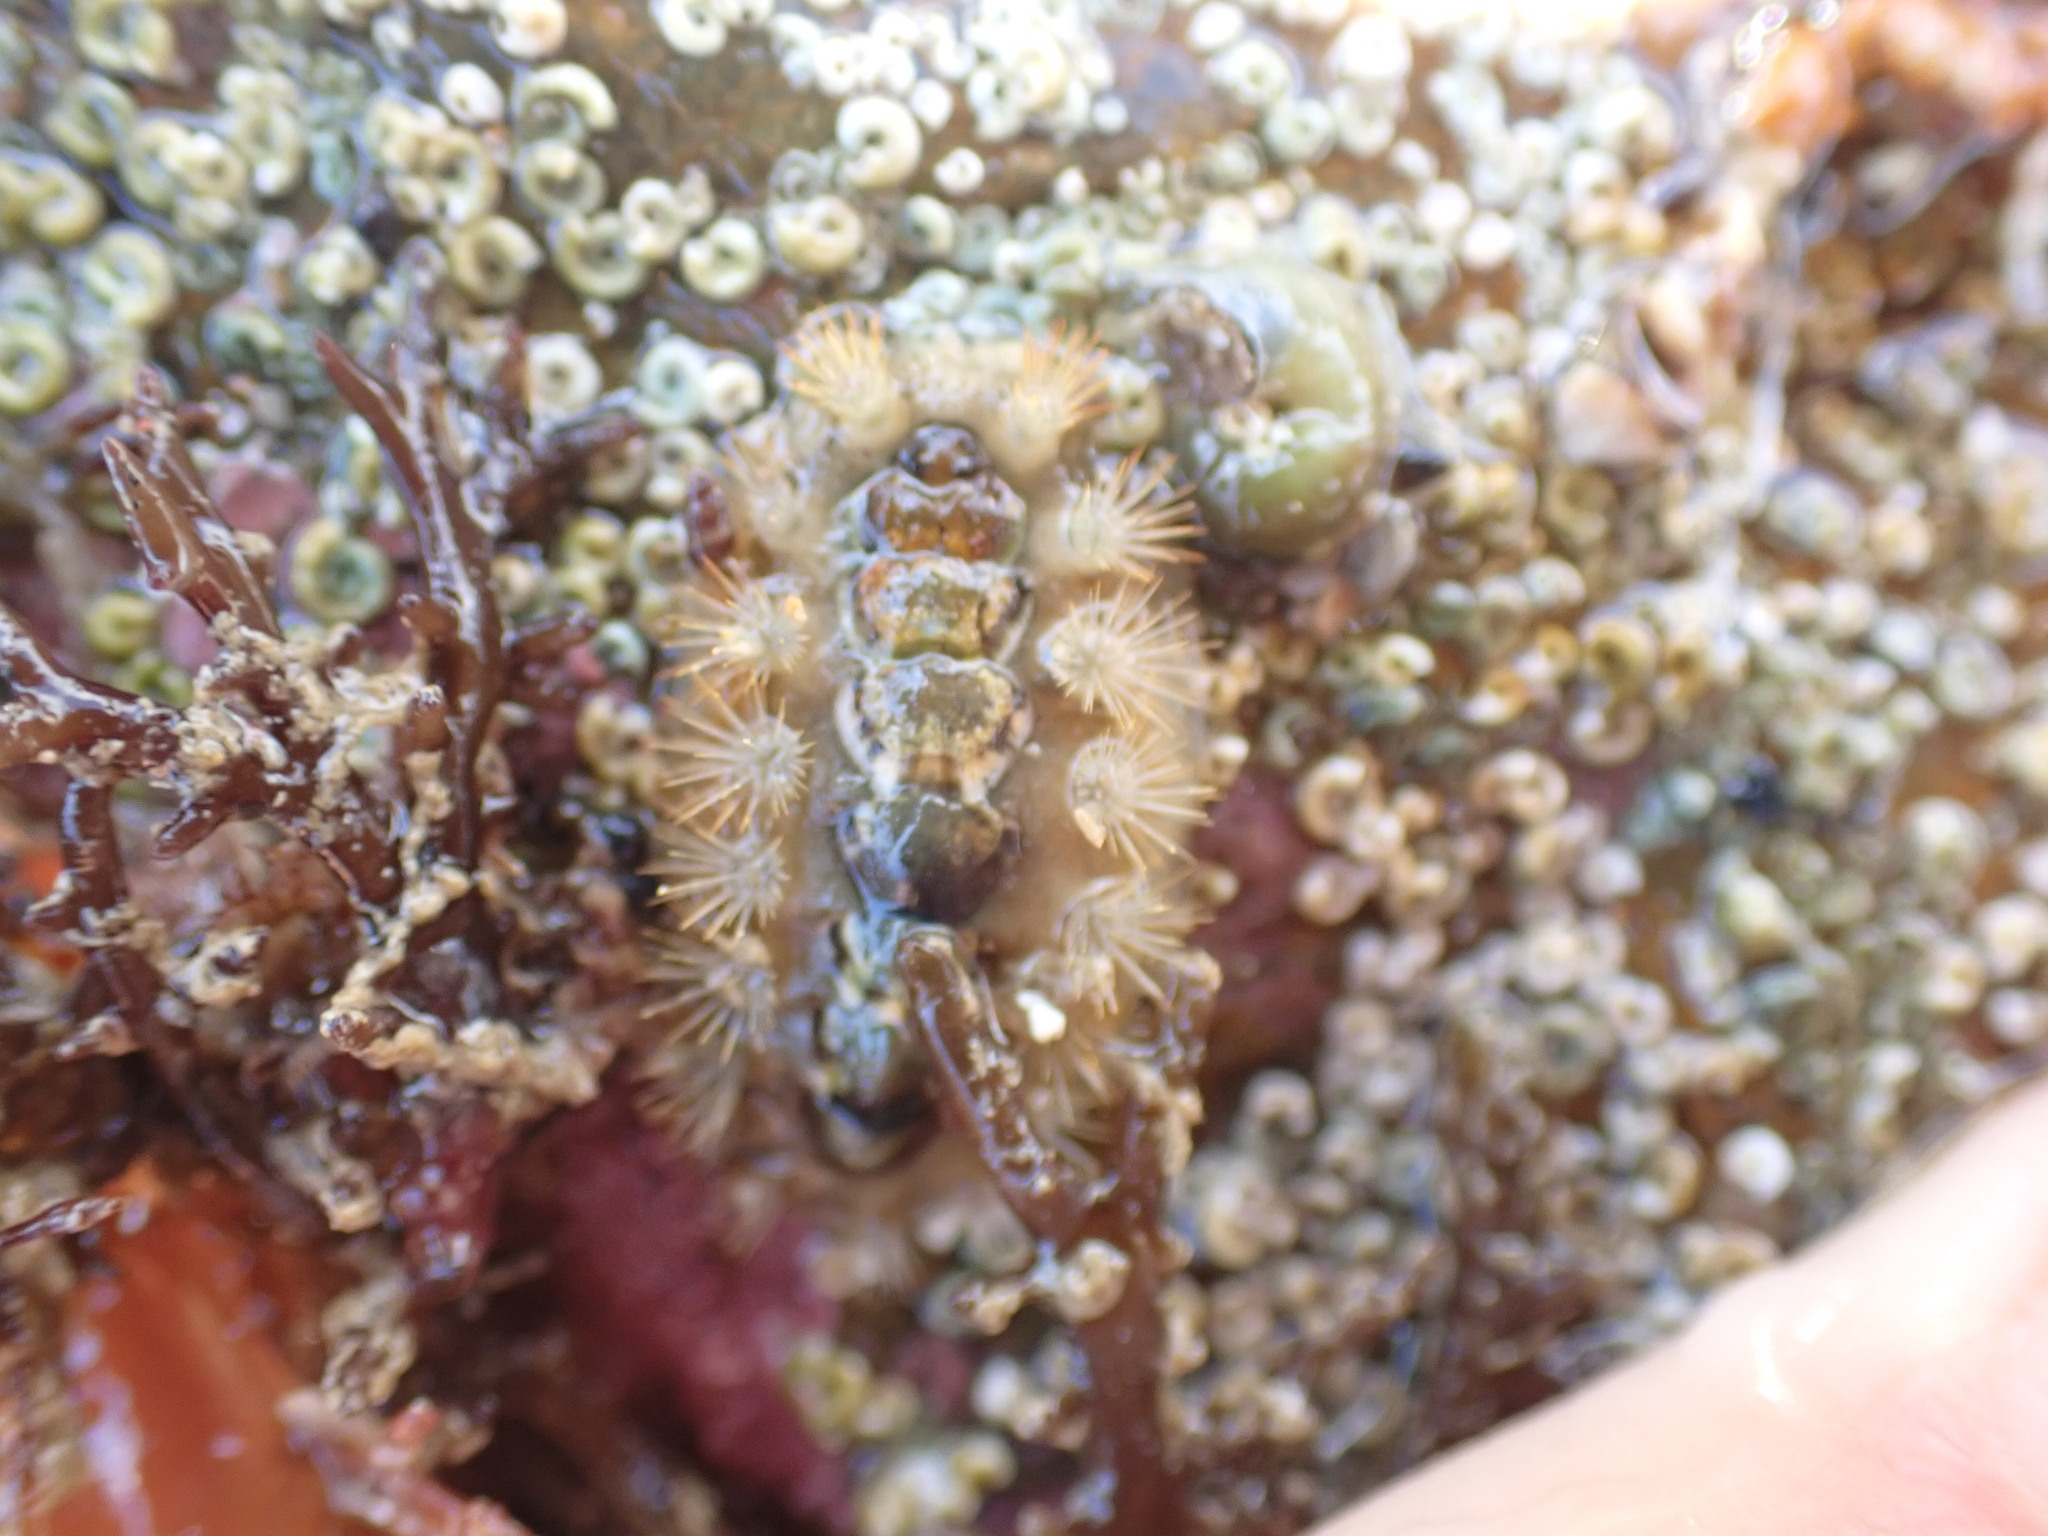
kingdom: Animalia
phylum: Mollusca
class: Polyplacophora
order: Chitonida
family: Acanthochitonidae
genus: Acanthochitona
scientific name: Acanthochitona zelandica
